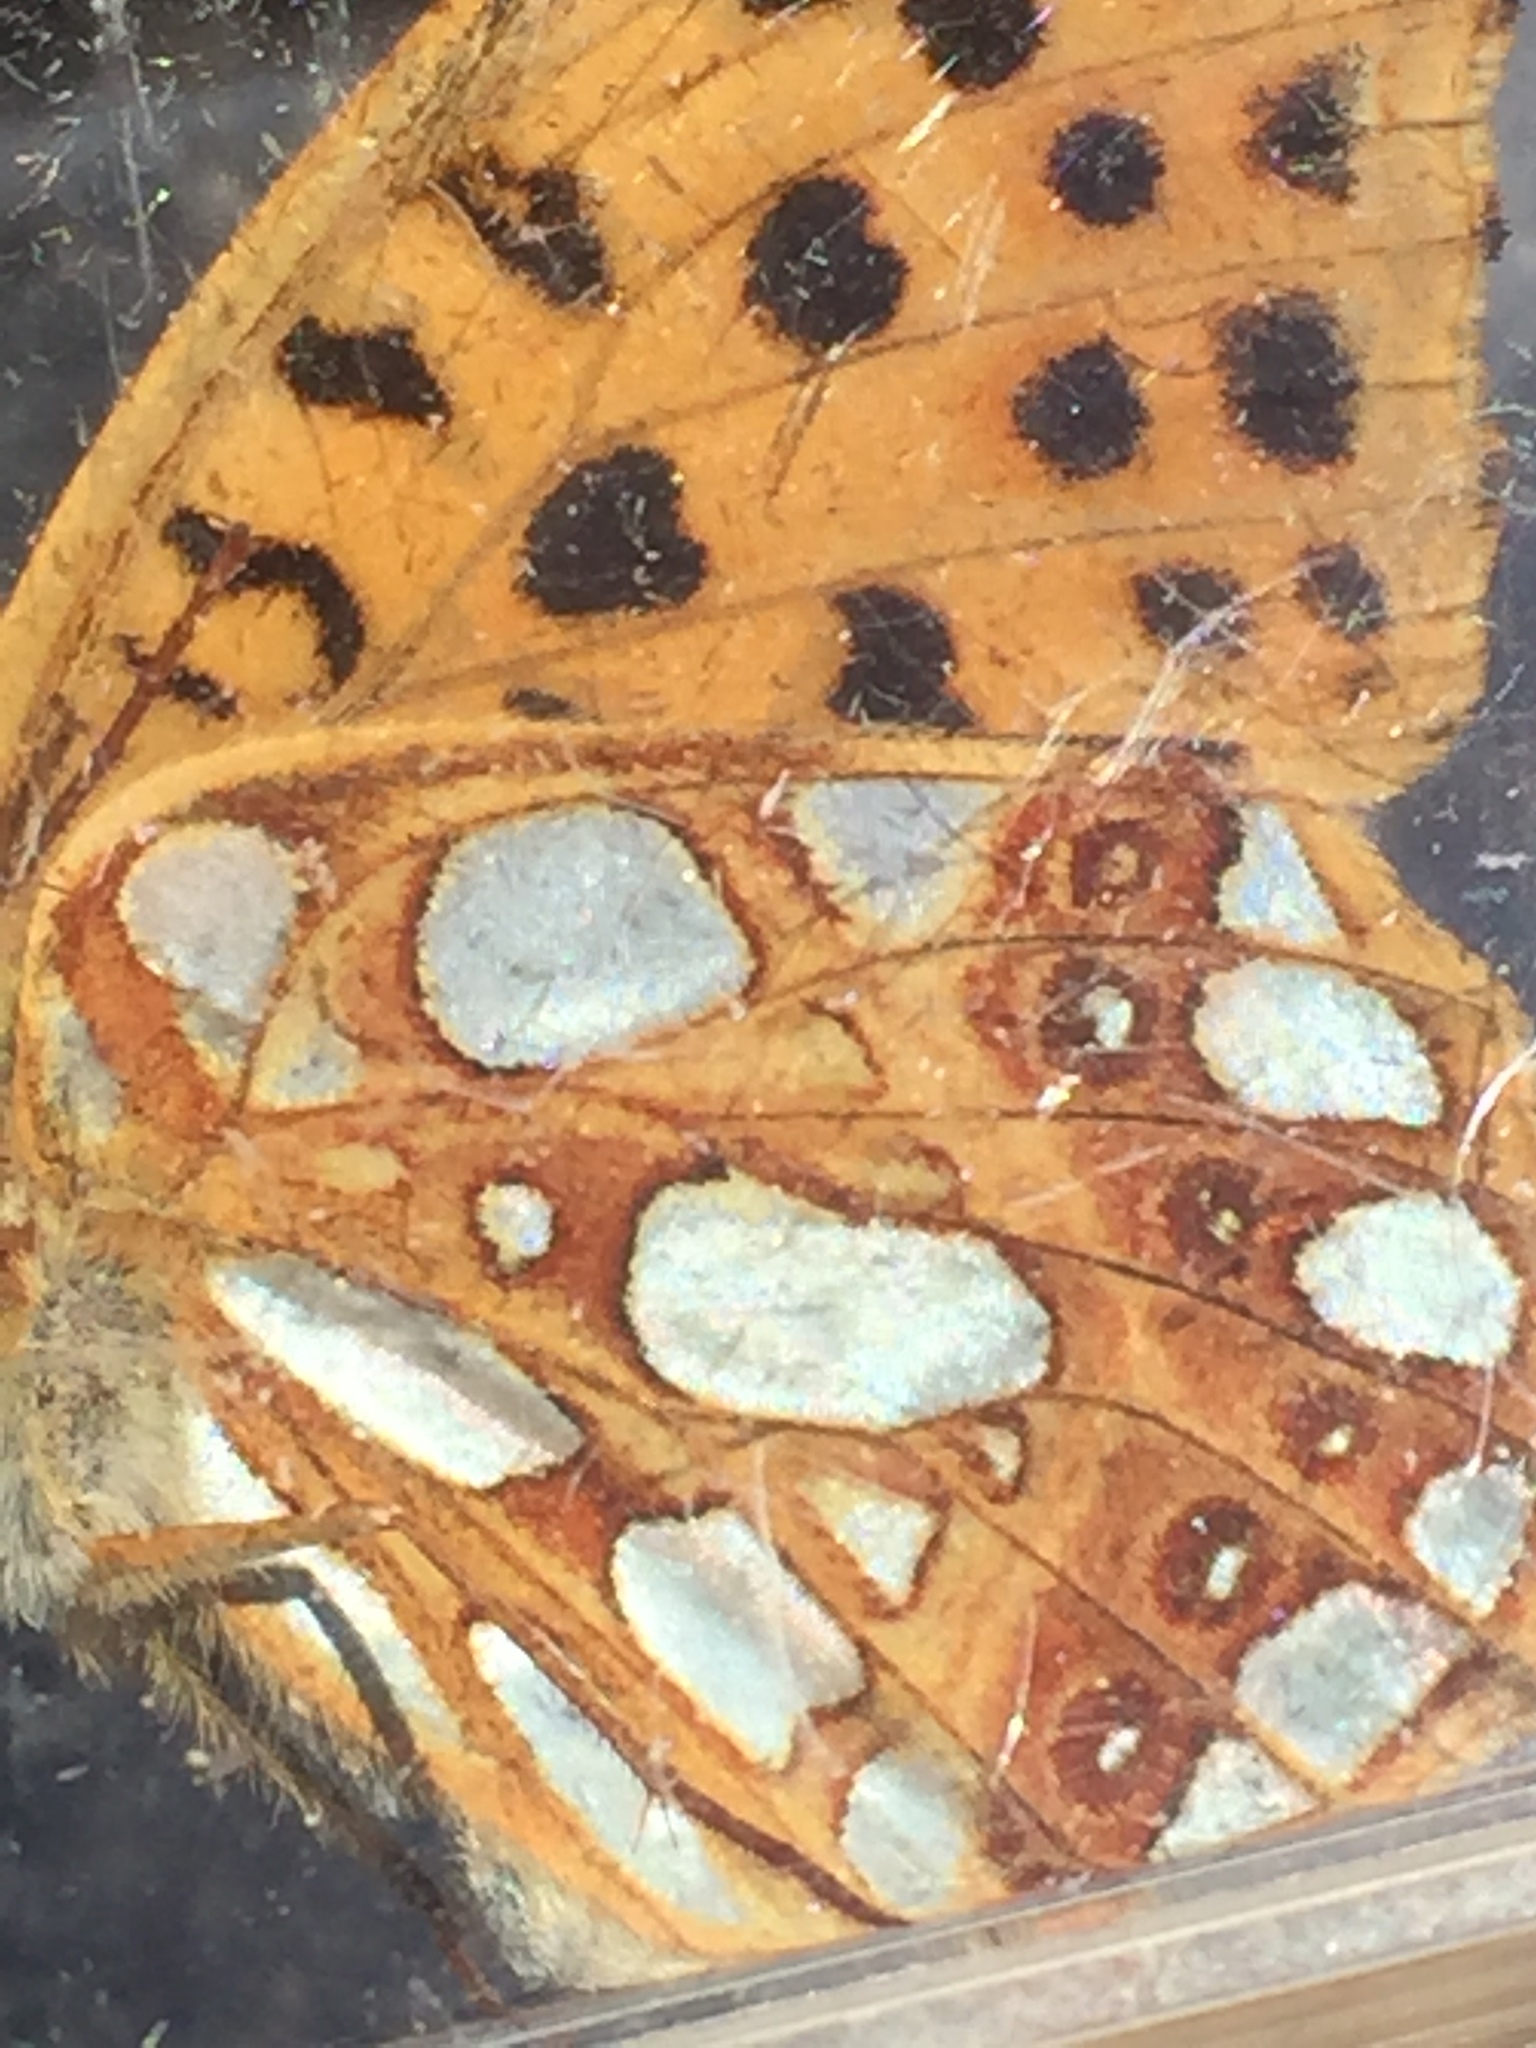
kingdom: Animalia
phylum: Arthropoda
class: Insecta
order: Lepidoptera
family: Nymphalidae
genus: Issoria
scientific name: Issoria lathonia
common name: Queen of spain fritillary
